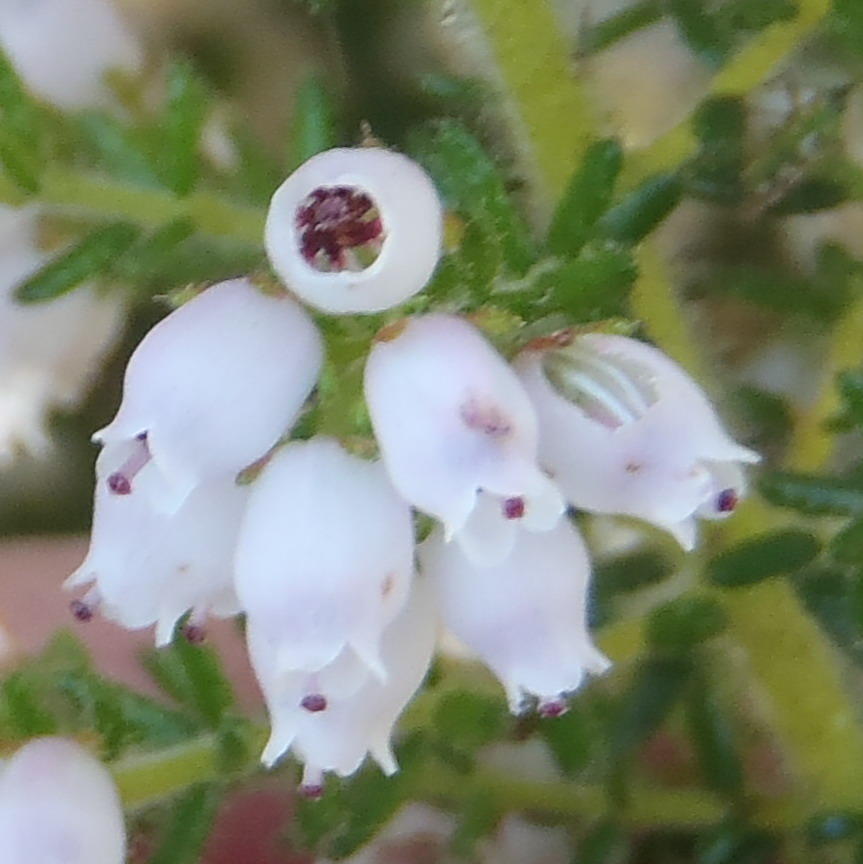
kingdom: Plantae
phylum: Tracheophyta
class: Magnoliopsida
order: Ericales
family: Ericaceae
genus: Erica
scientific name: Erica scabriuscula
